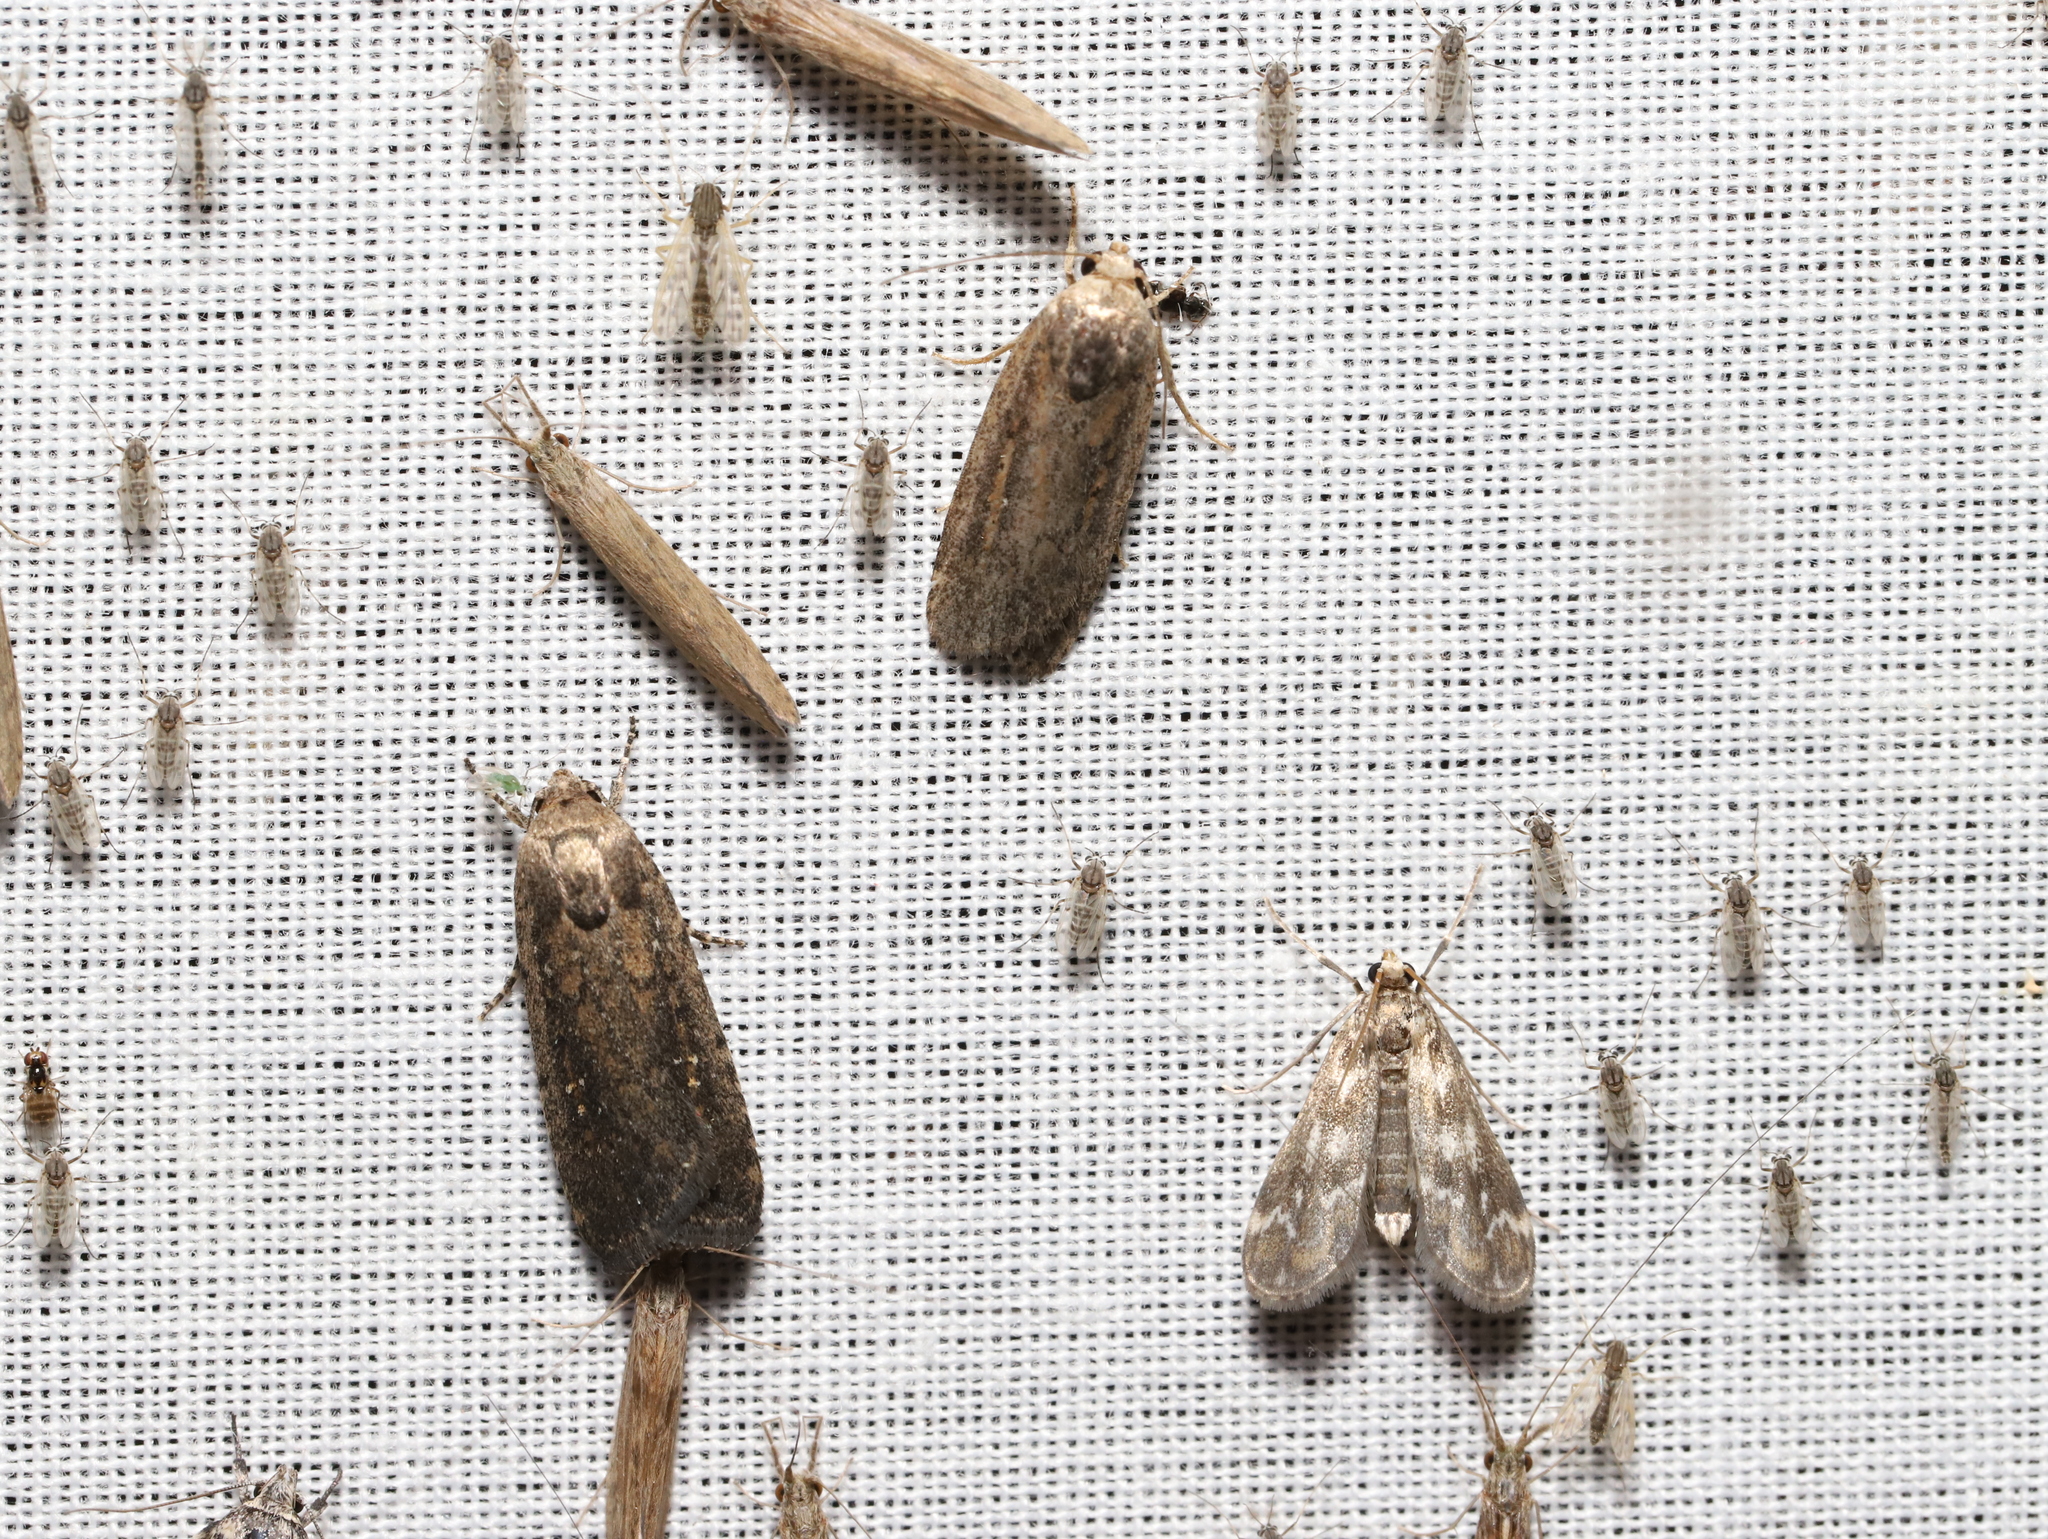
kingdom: Animalia
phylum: Arthropoda
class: Insecta
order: Lepidoptera
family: Crambidae
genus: Hygraula
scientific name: Hygraula nitens
